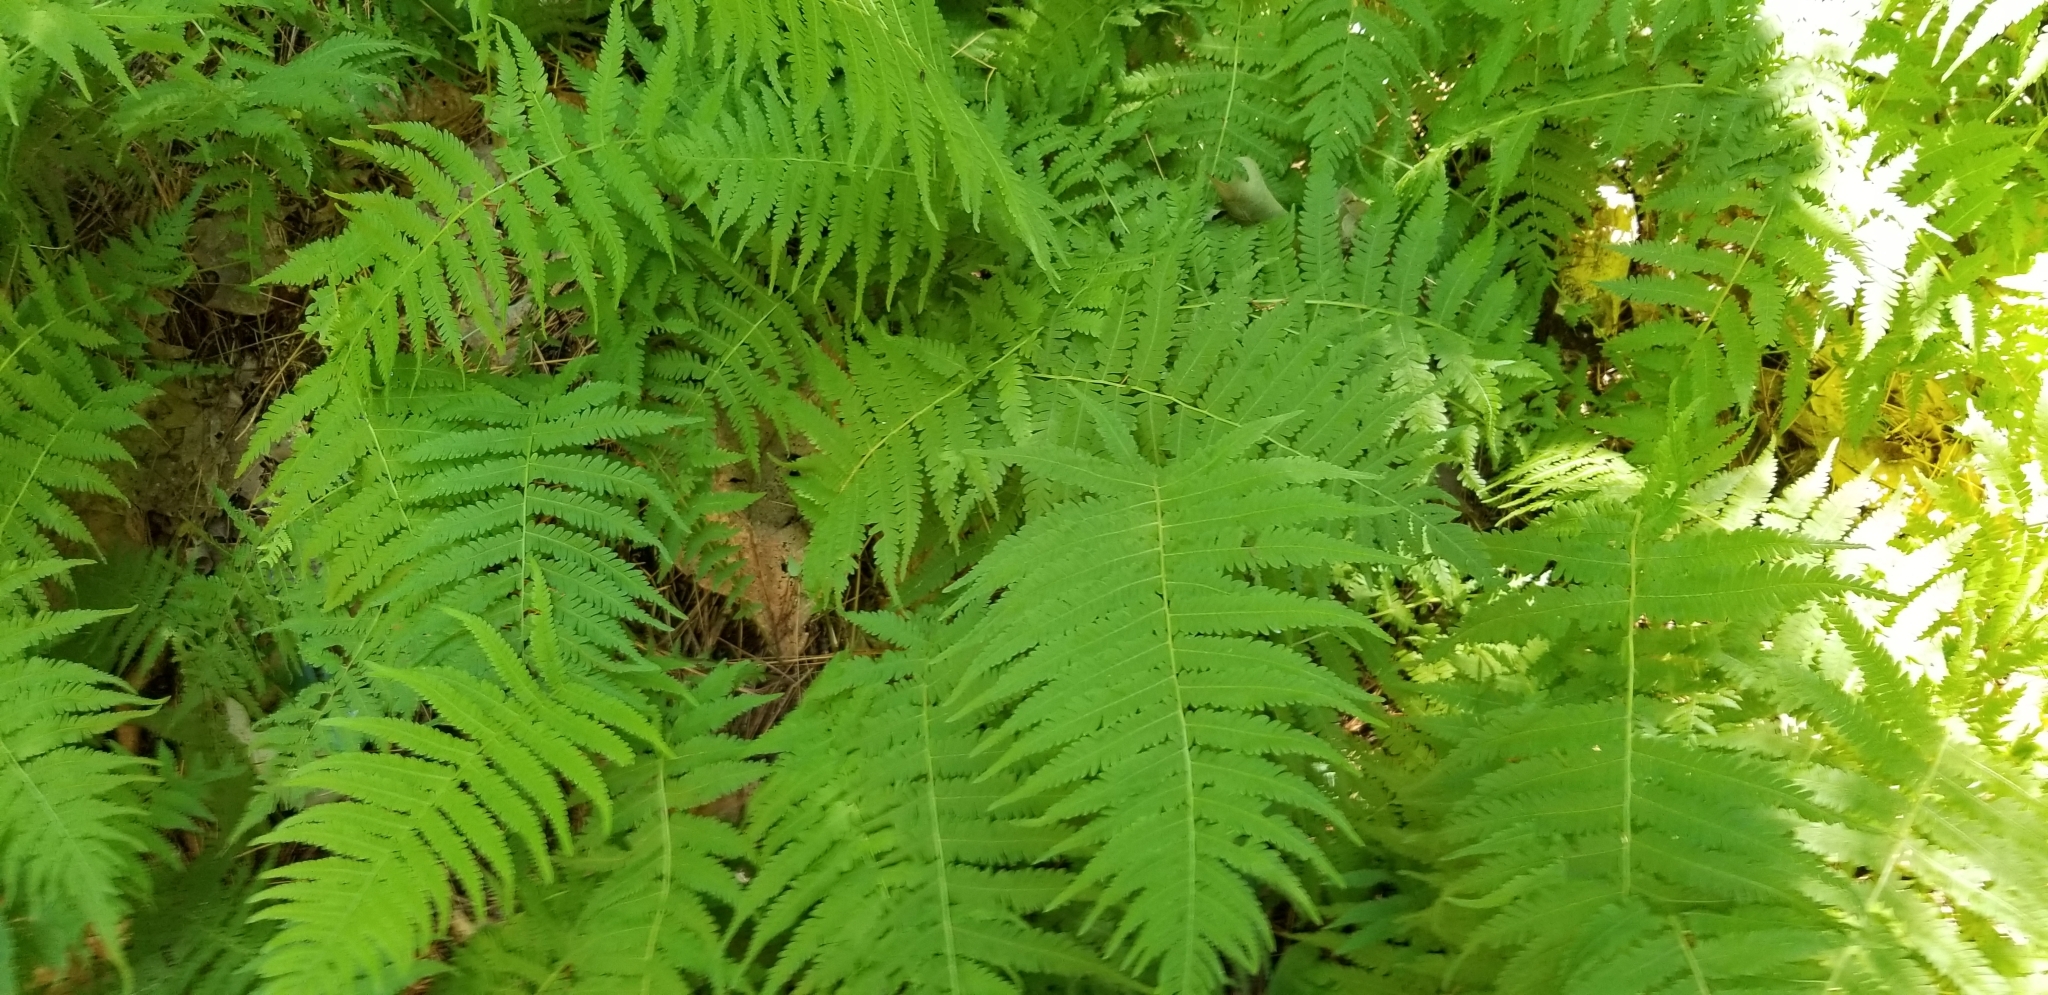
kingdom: Plantae
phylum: Tracheophyta
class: Polypodiopsida
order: Polypodiales
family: Thelypteridaceae
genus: Amauropelta
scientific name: Amauropelta noveboracensis
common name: New york fern
